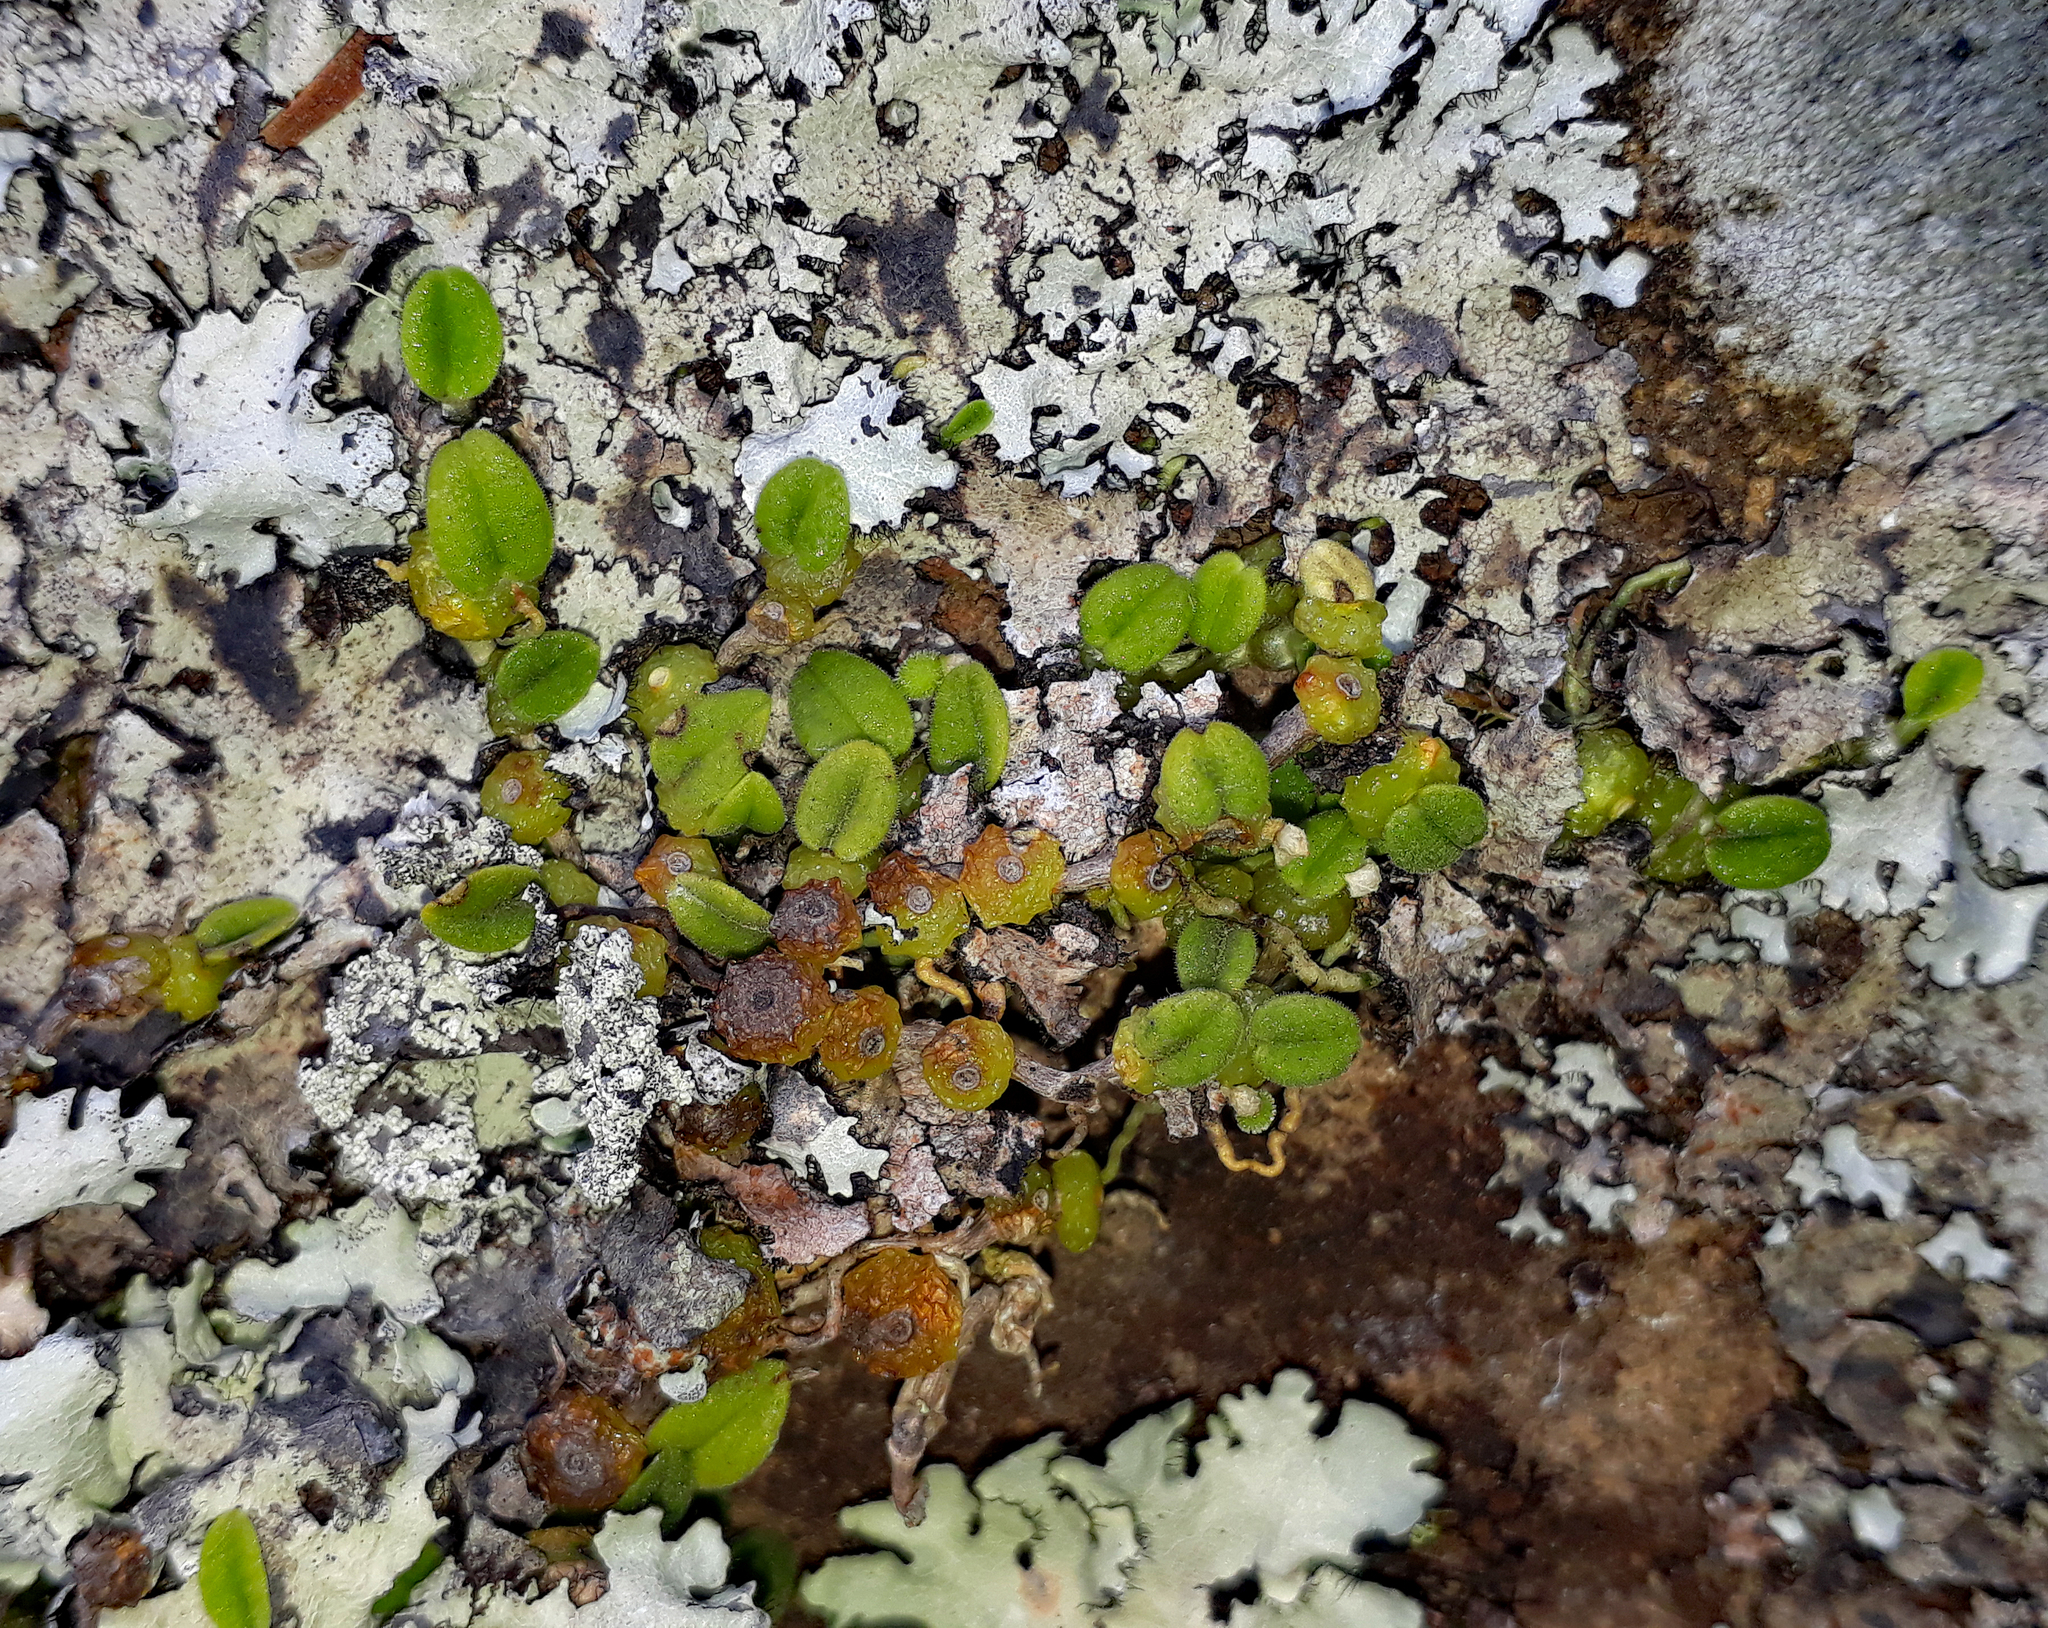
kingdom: Plantae
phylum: Tracheophyta
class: Liliopsida
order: Asparagales
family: Orchidaceae
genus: Bulbophyllum
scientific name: Bulbophyllum pygmaeum
